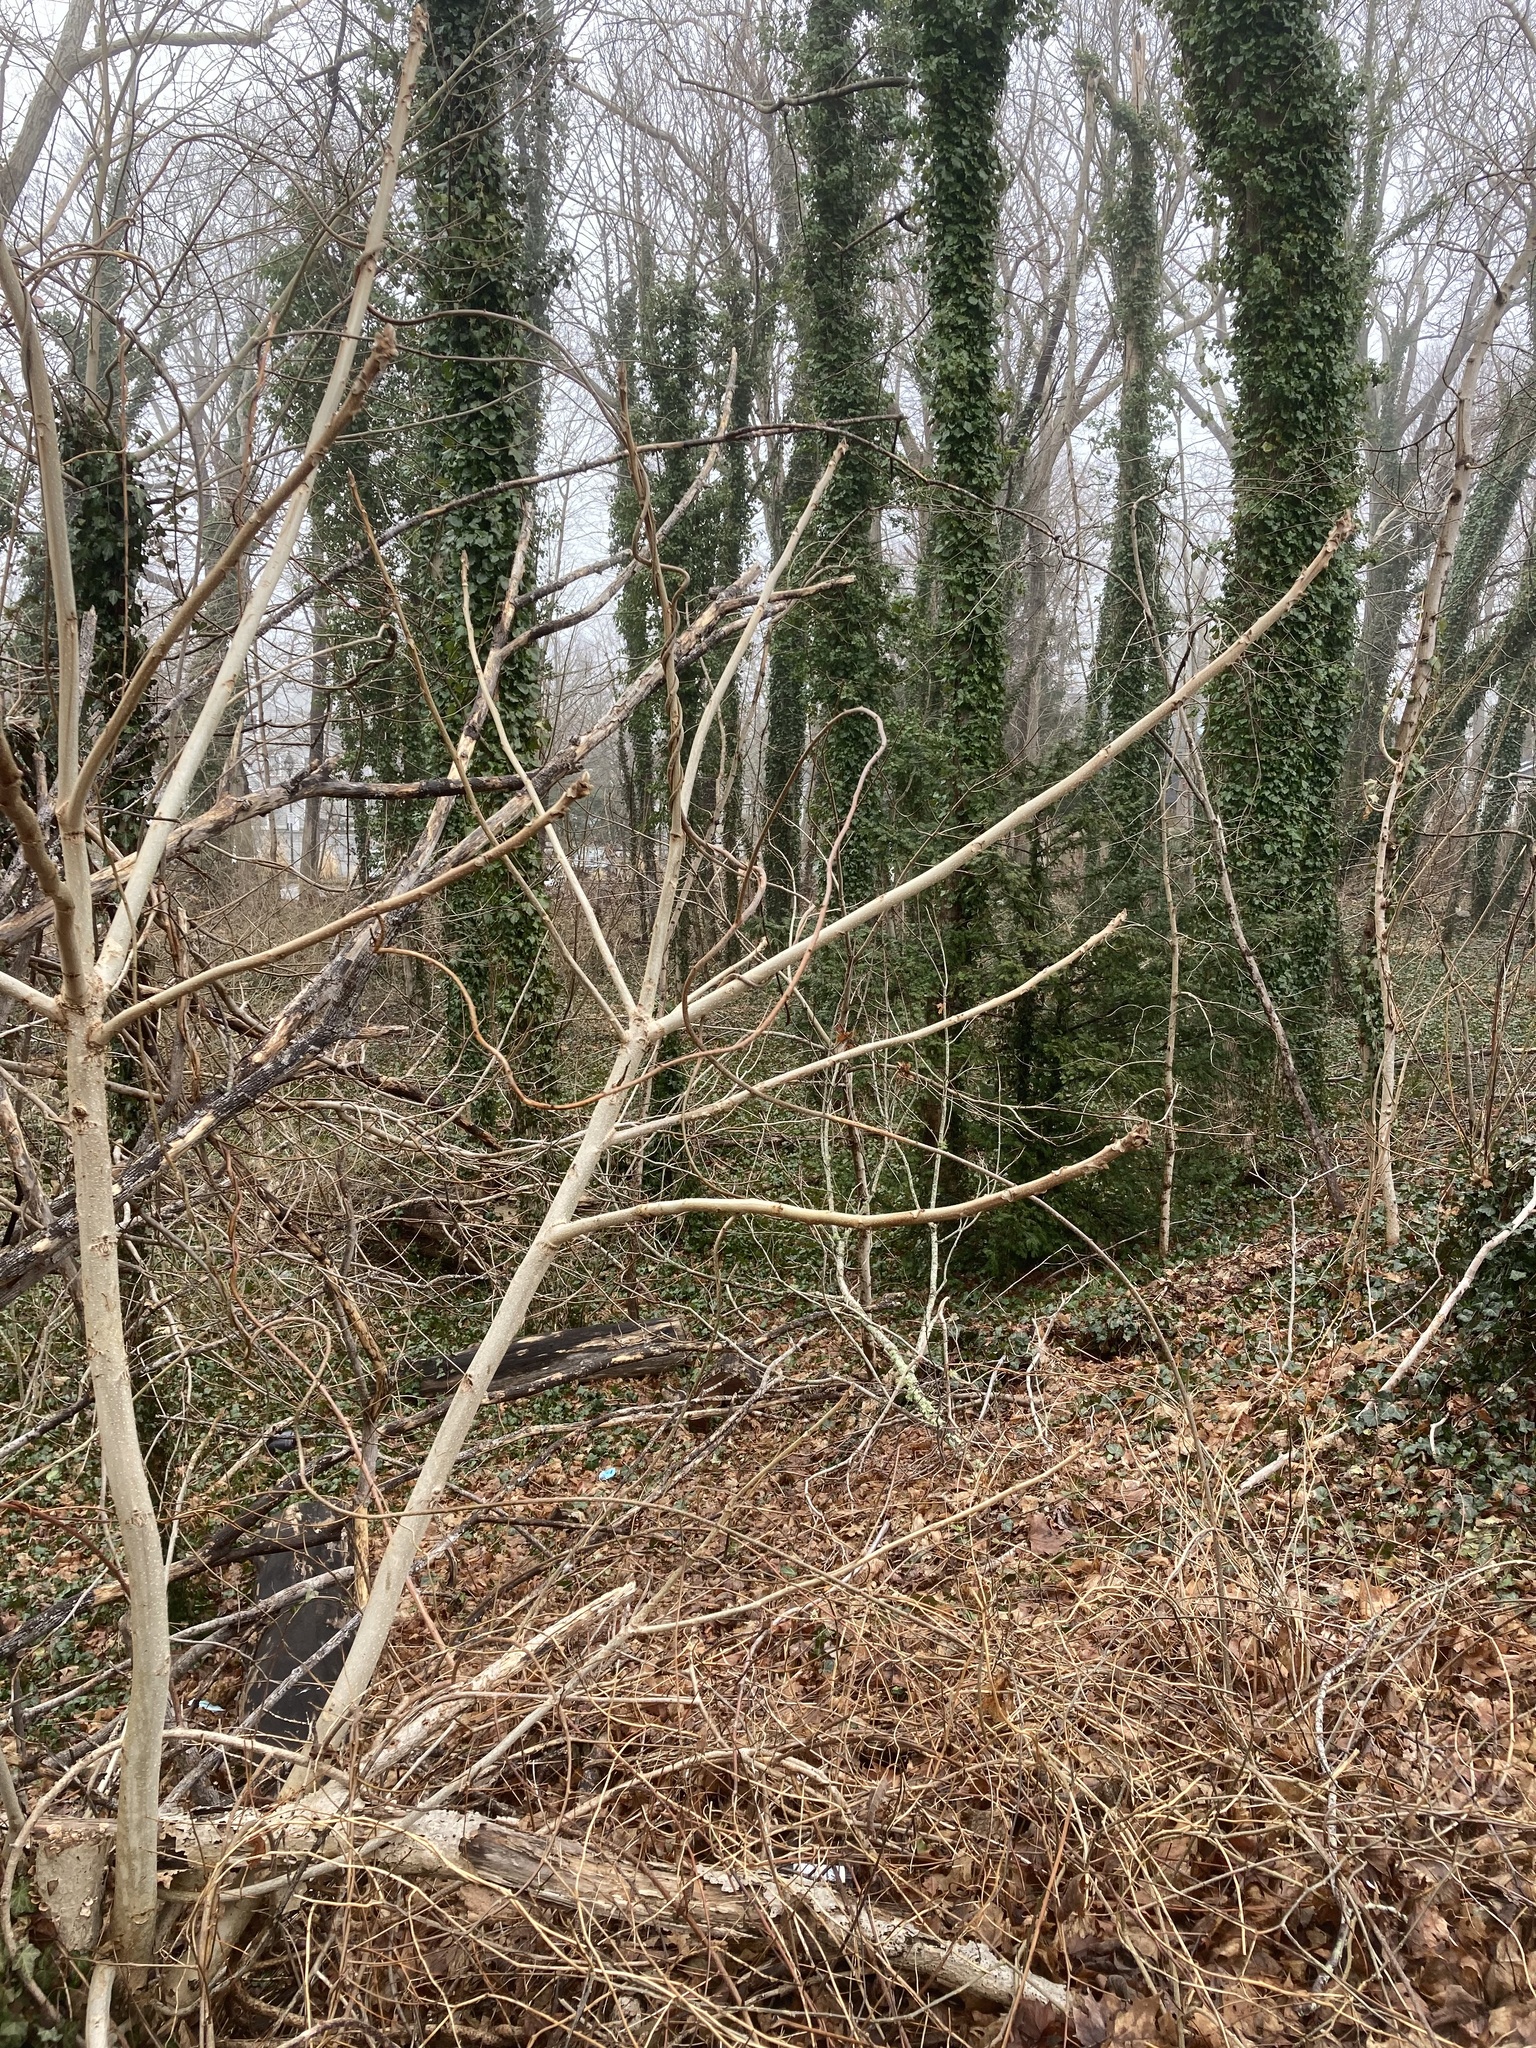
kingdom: Plantae
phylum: Tracheophyta
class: Magnoliopsida
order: Fagales
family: Juglandaceae
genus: Juglans
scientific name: Juglans cinerea
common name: Butternut
